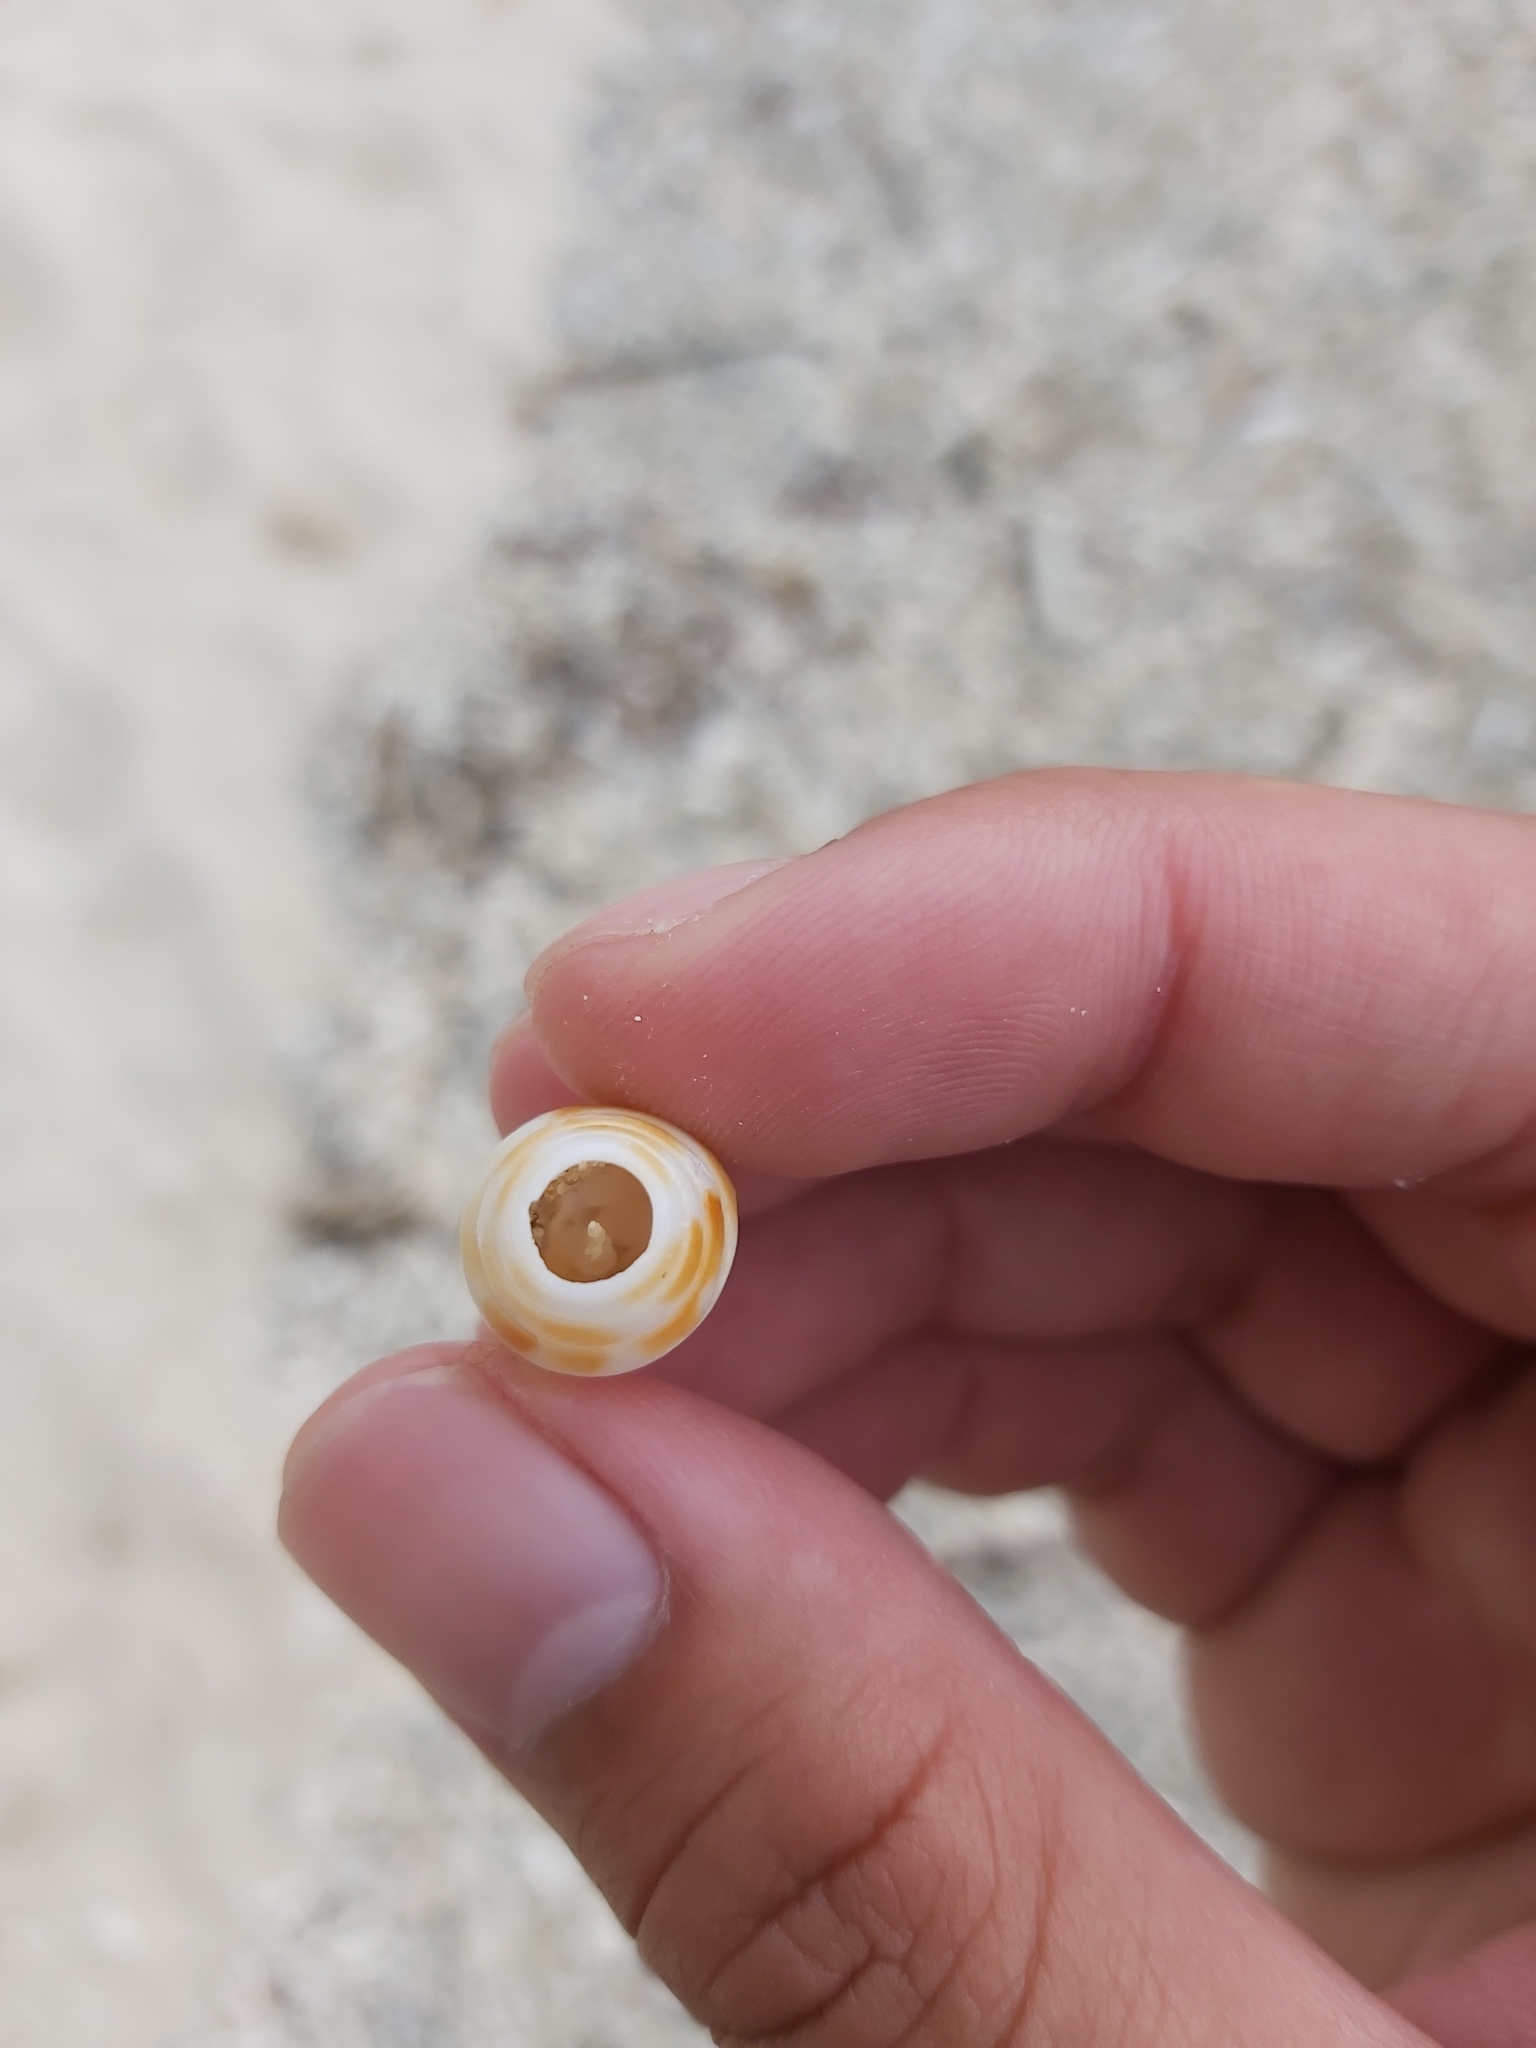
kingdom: Animalia
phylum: Mollusca
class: Gastropoda
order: Neogastropoda
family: Conidae
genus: Conus
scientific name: Conus mitratus
